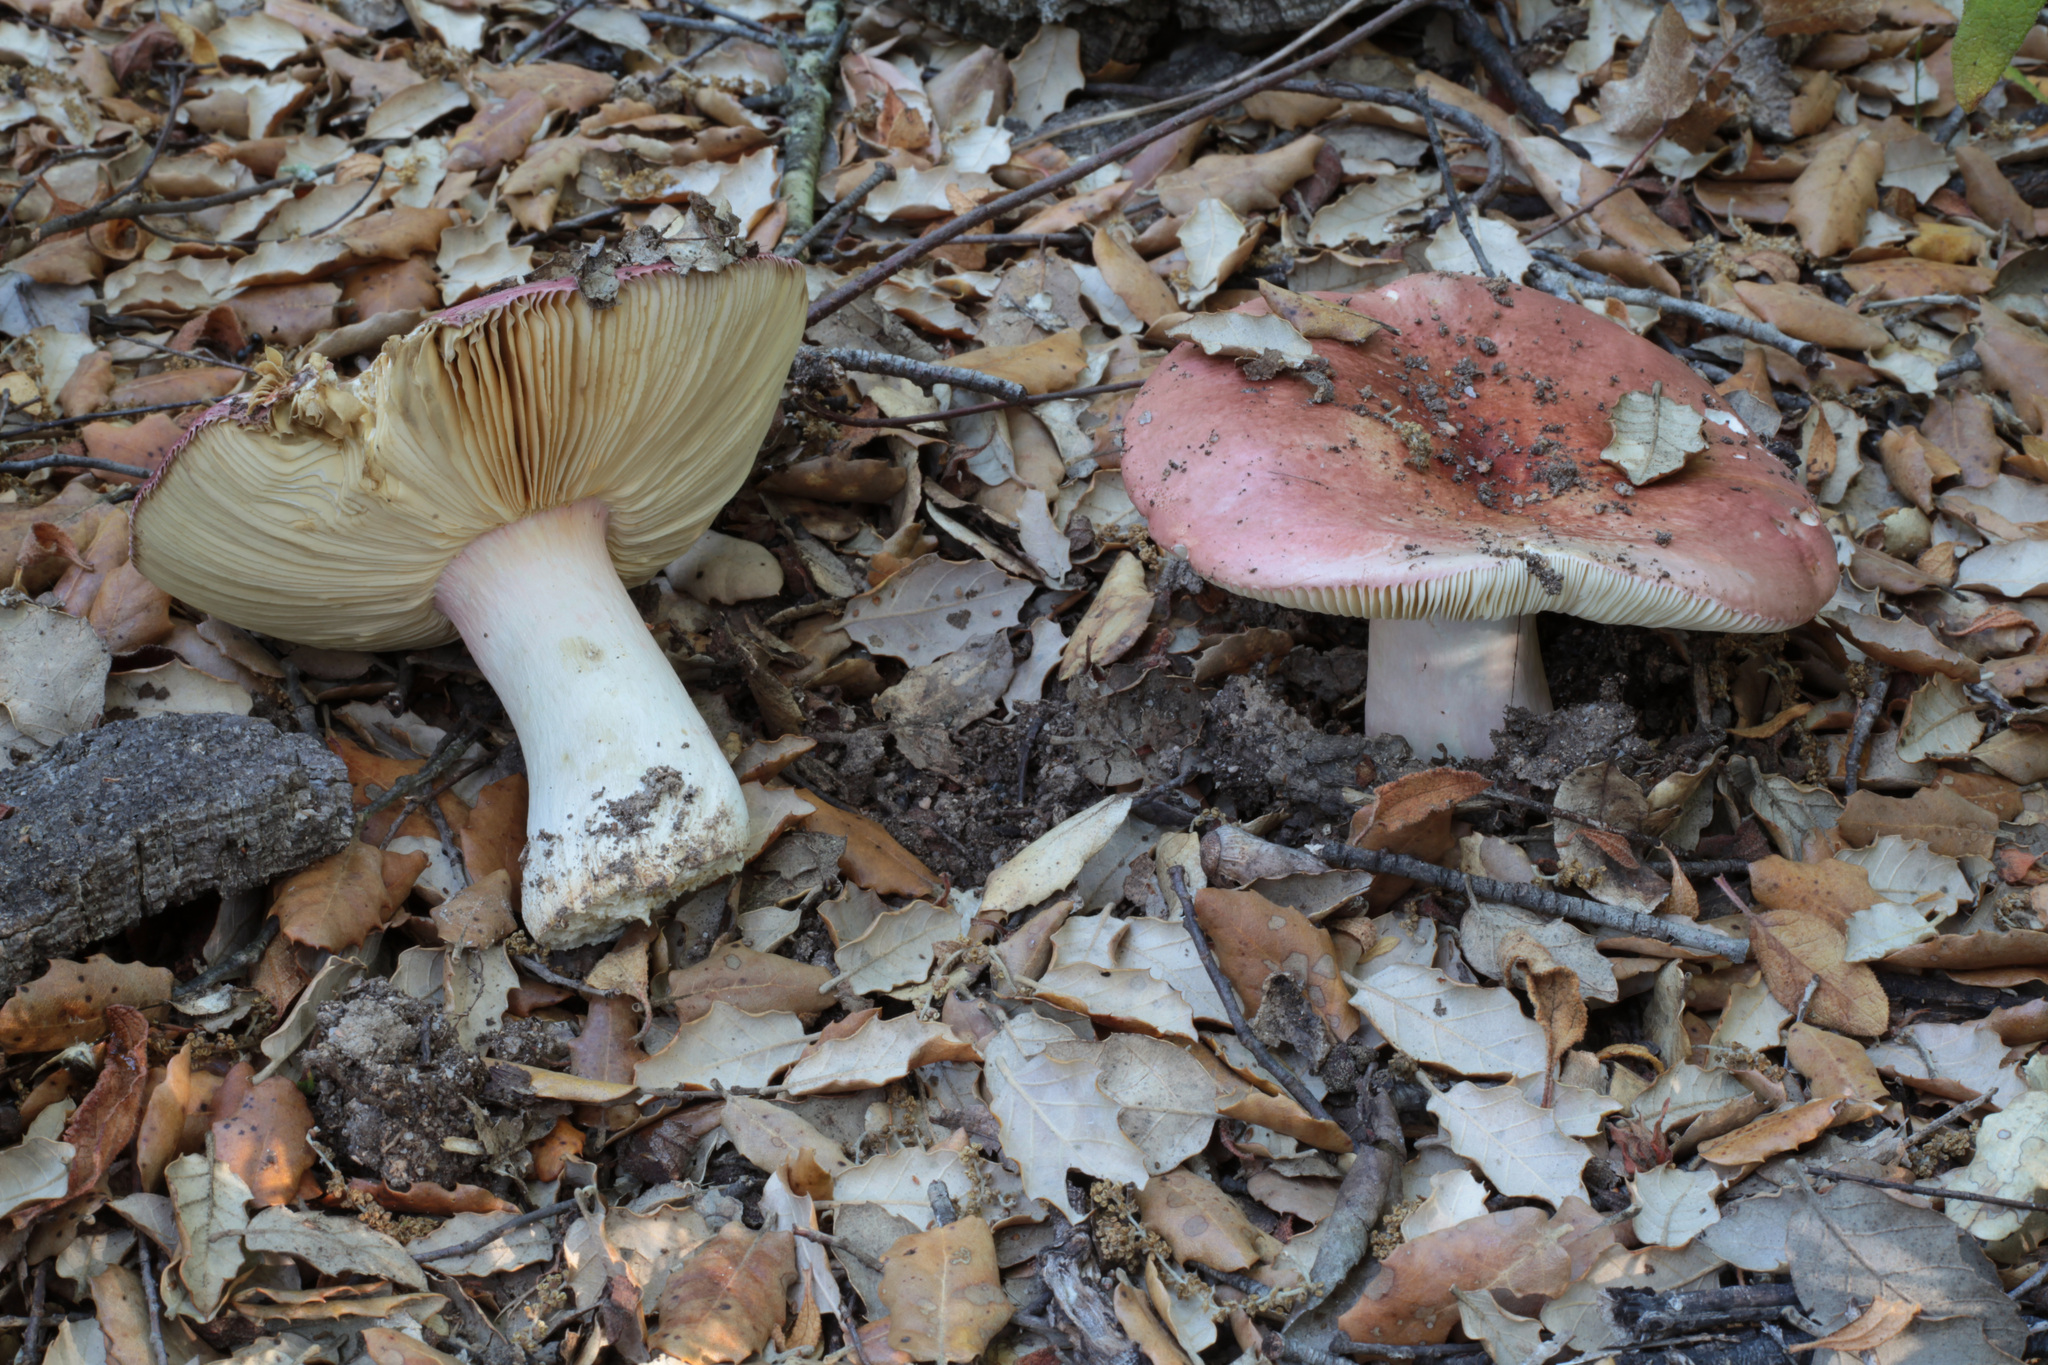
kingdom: Fungi
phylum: Basidiomycota
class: Agaricomycetes
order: Russulales
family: Russulaceae
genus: Russula
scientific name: Russula vinosobrunnea
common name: Naked brittlegill
